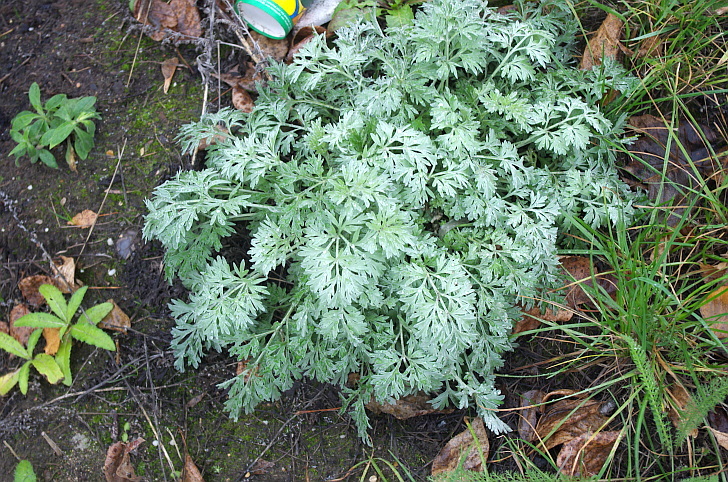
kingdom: Plantae
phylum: Tracheophyta
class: Magnoliopsida
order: Asterales
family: Asteraceae
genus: Artemisia
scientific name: Artemisia absinthium
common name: Wormwood
